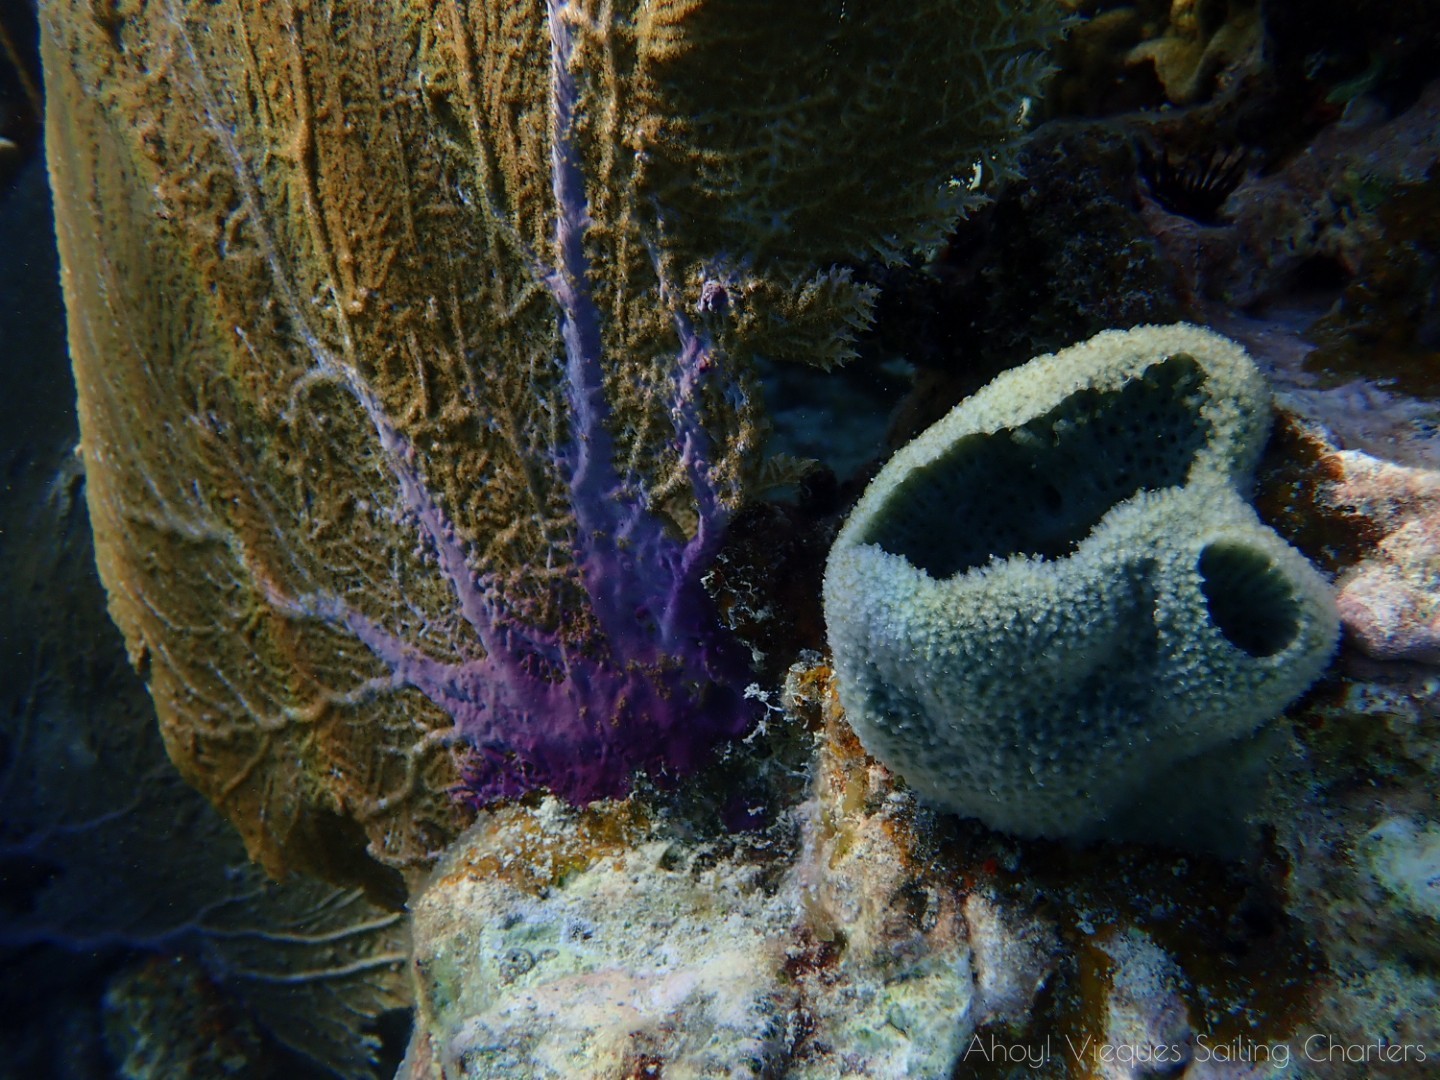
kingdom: Animalia
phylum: Porifera
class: Demospongiae
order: Haplosclerida
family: Niphatidae
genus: Niphates
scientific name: Niphates digitalis
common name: Pink vase sponge
